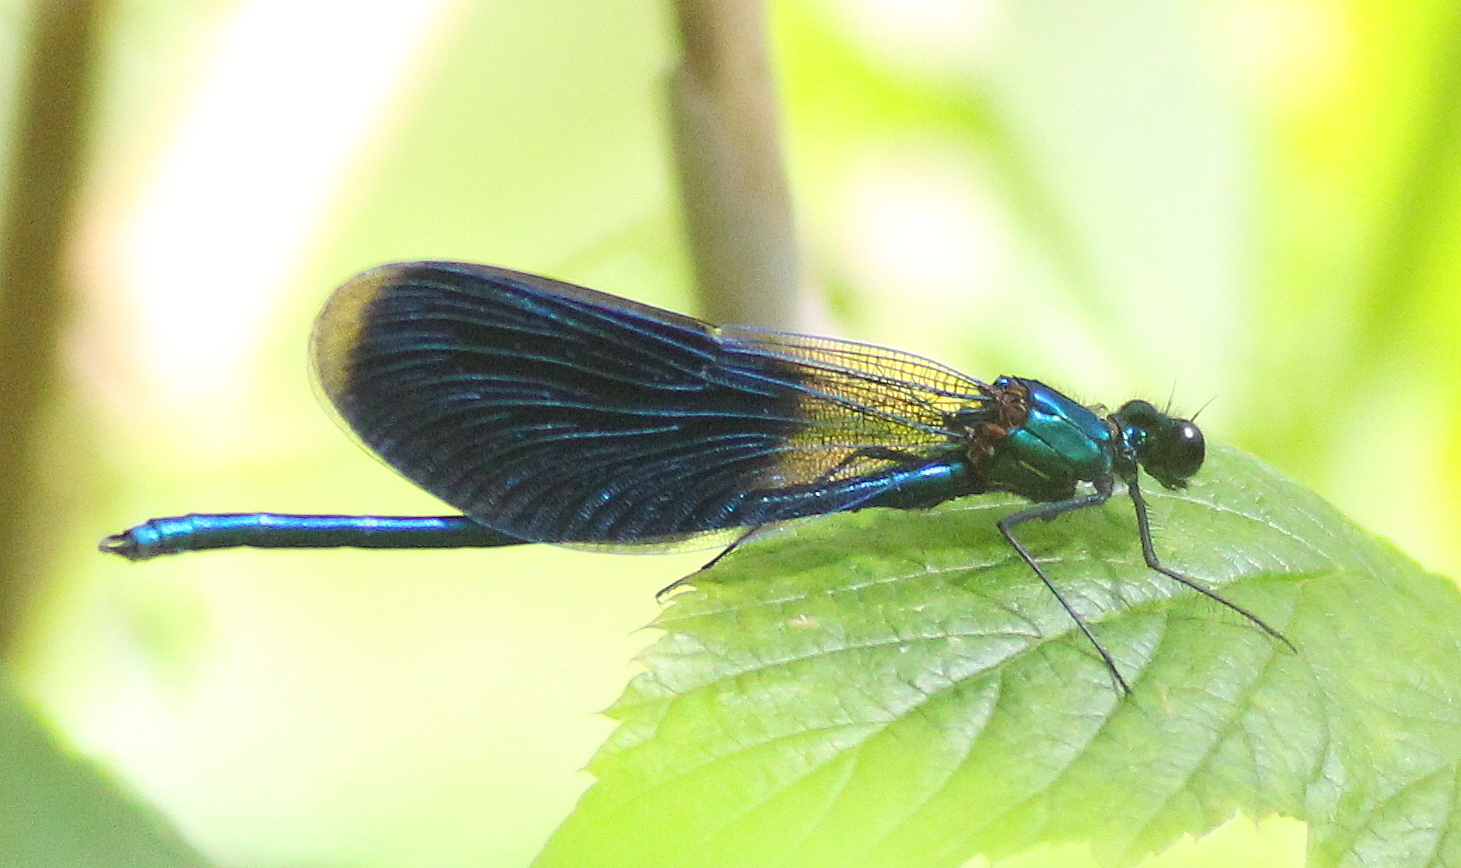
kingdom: Animalia
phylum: Arthropoda
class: Insecta
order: Odonata
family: Calopterygidae
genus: Calopteryx
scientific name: Calopteryx splendens
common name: Banded demoiselle
